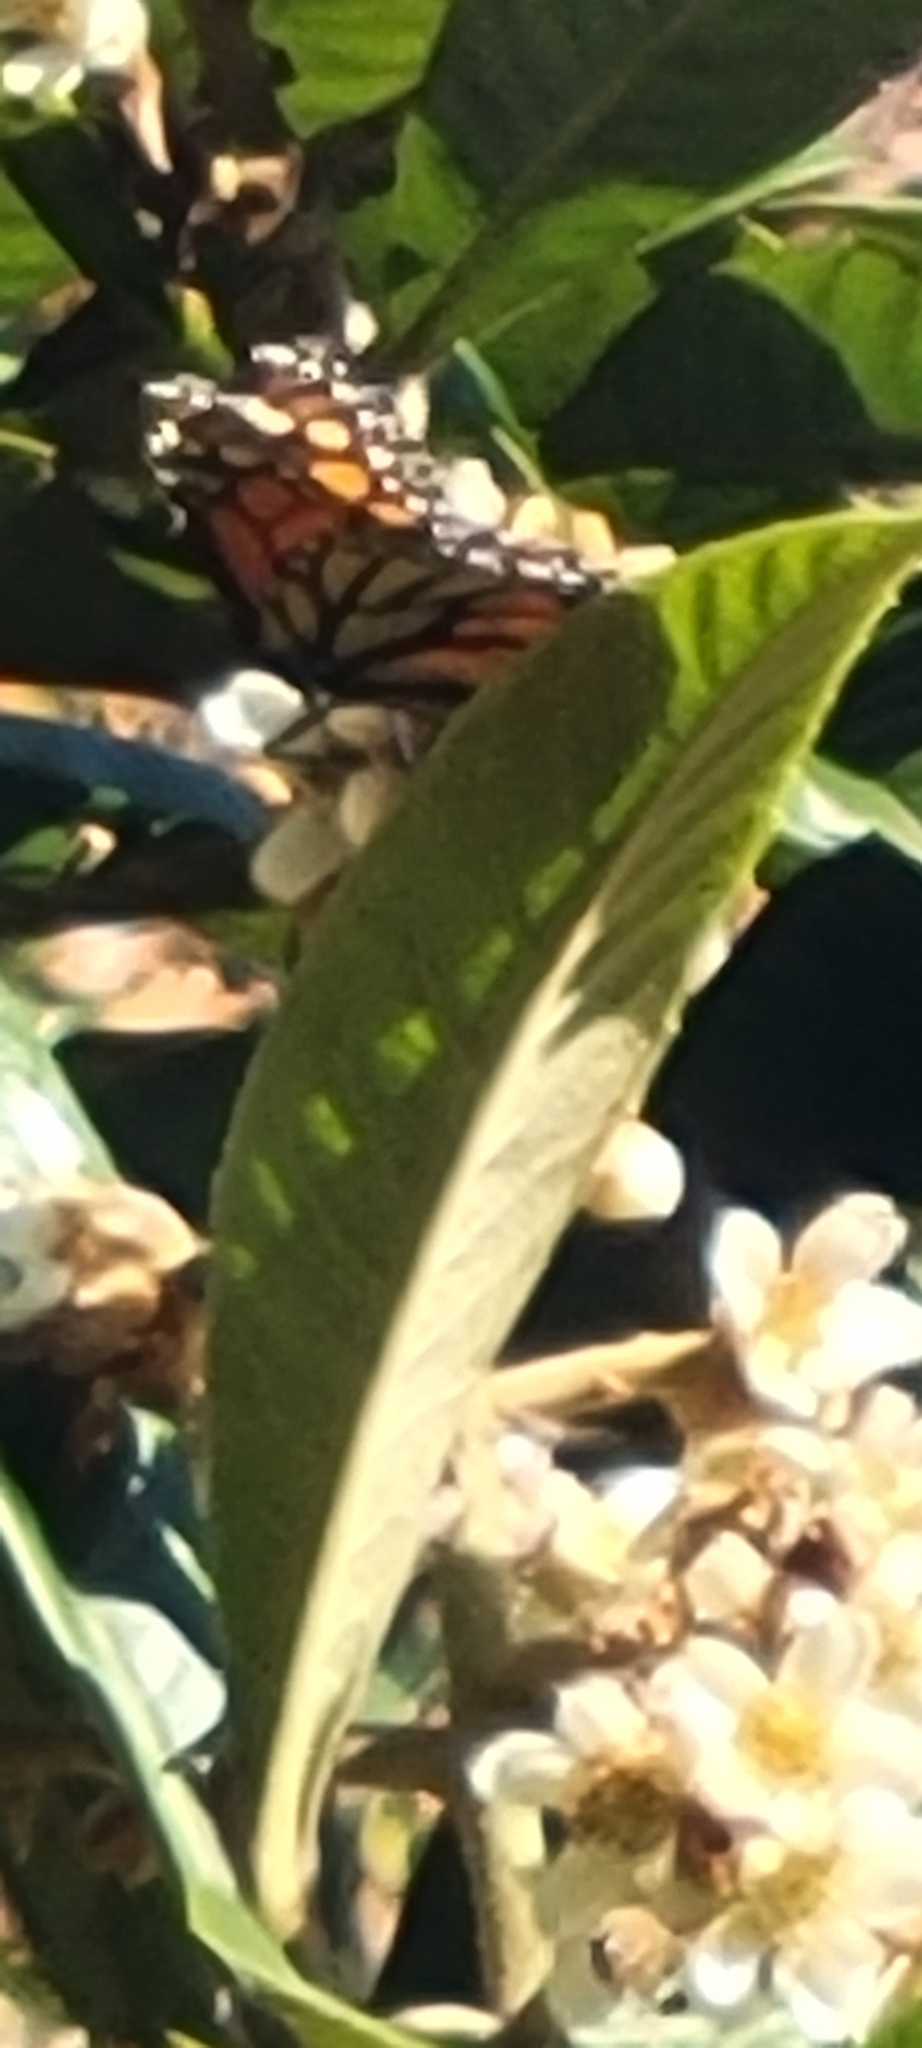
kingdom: Animalia
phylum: Arthropoda
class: Insecta
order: Lepidoptera
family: Nymphalidae
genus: Danaus
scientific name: Danaus plexippus
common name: Monarch
